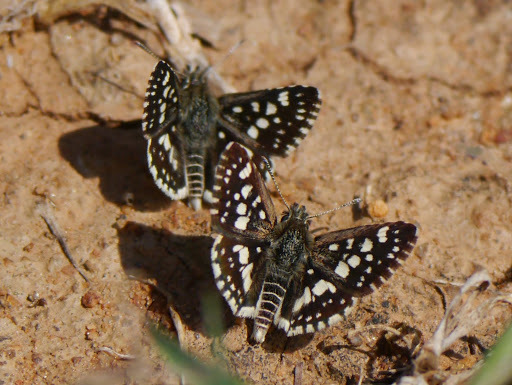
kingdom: Animalia
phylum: Arthropoda
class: Insecta
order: Lepidoptera
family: Hesperiidae
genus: Ernsta
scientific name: Ernsta
